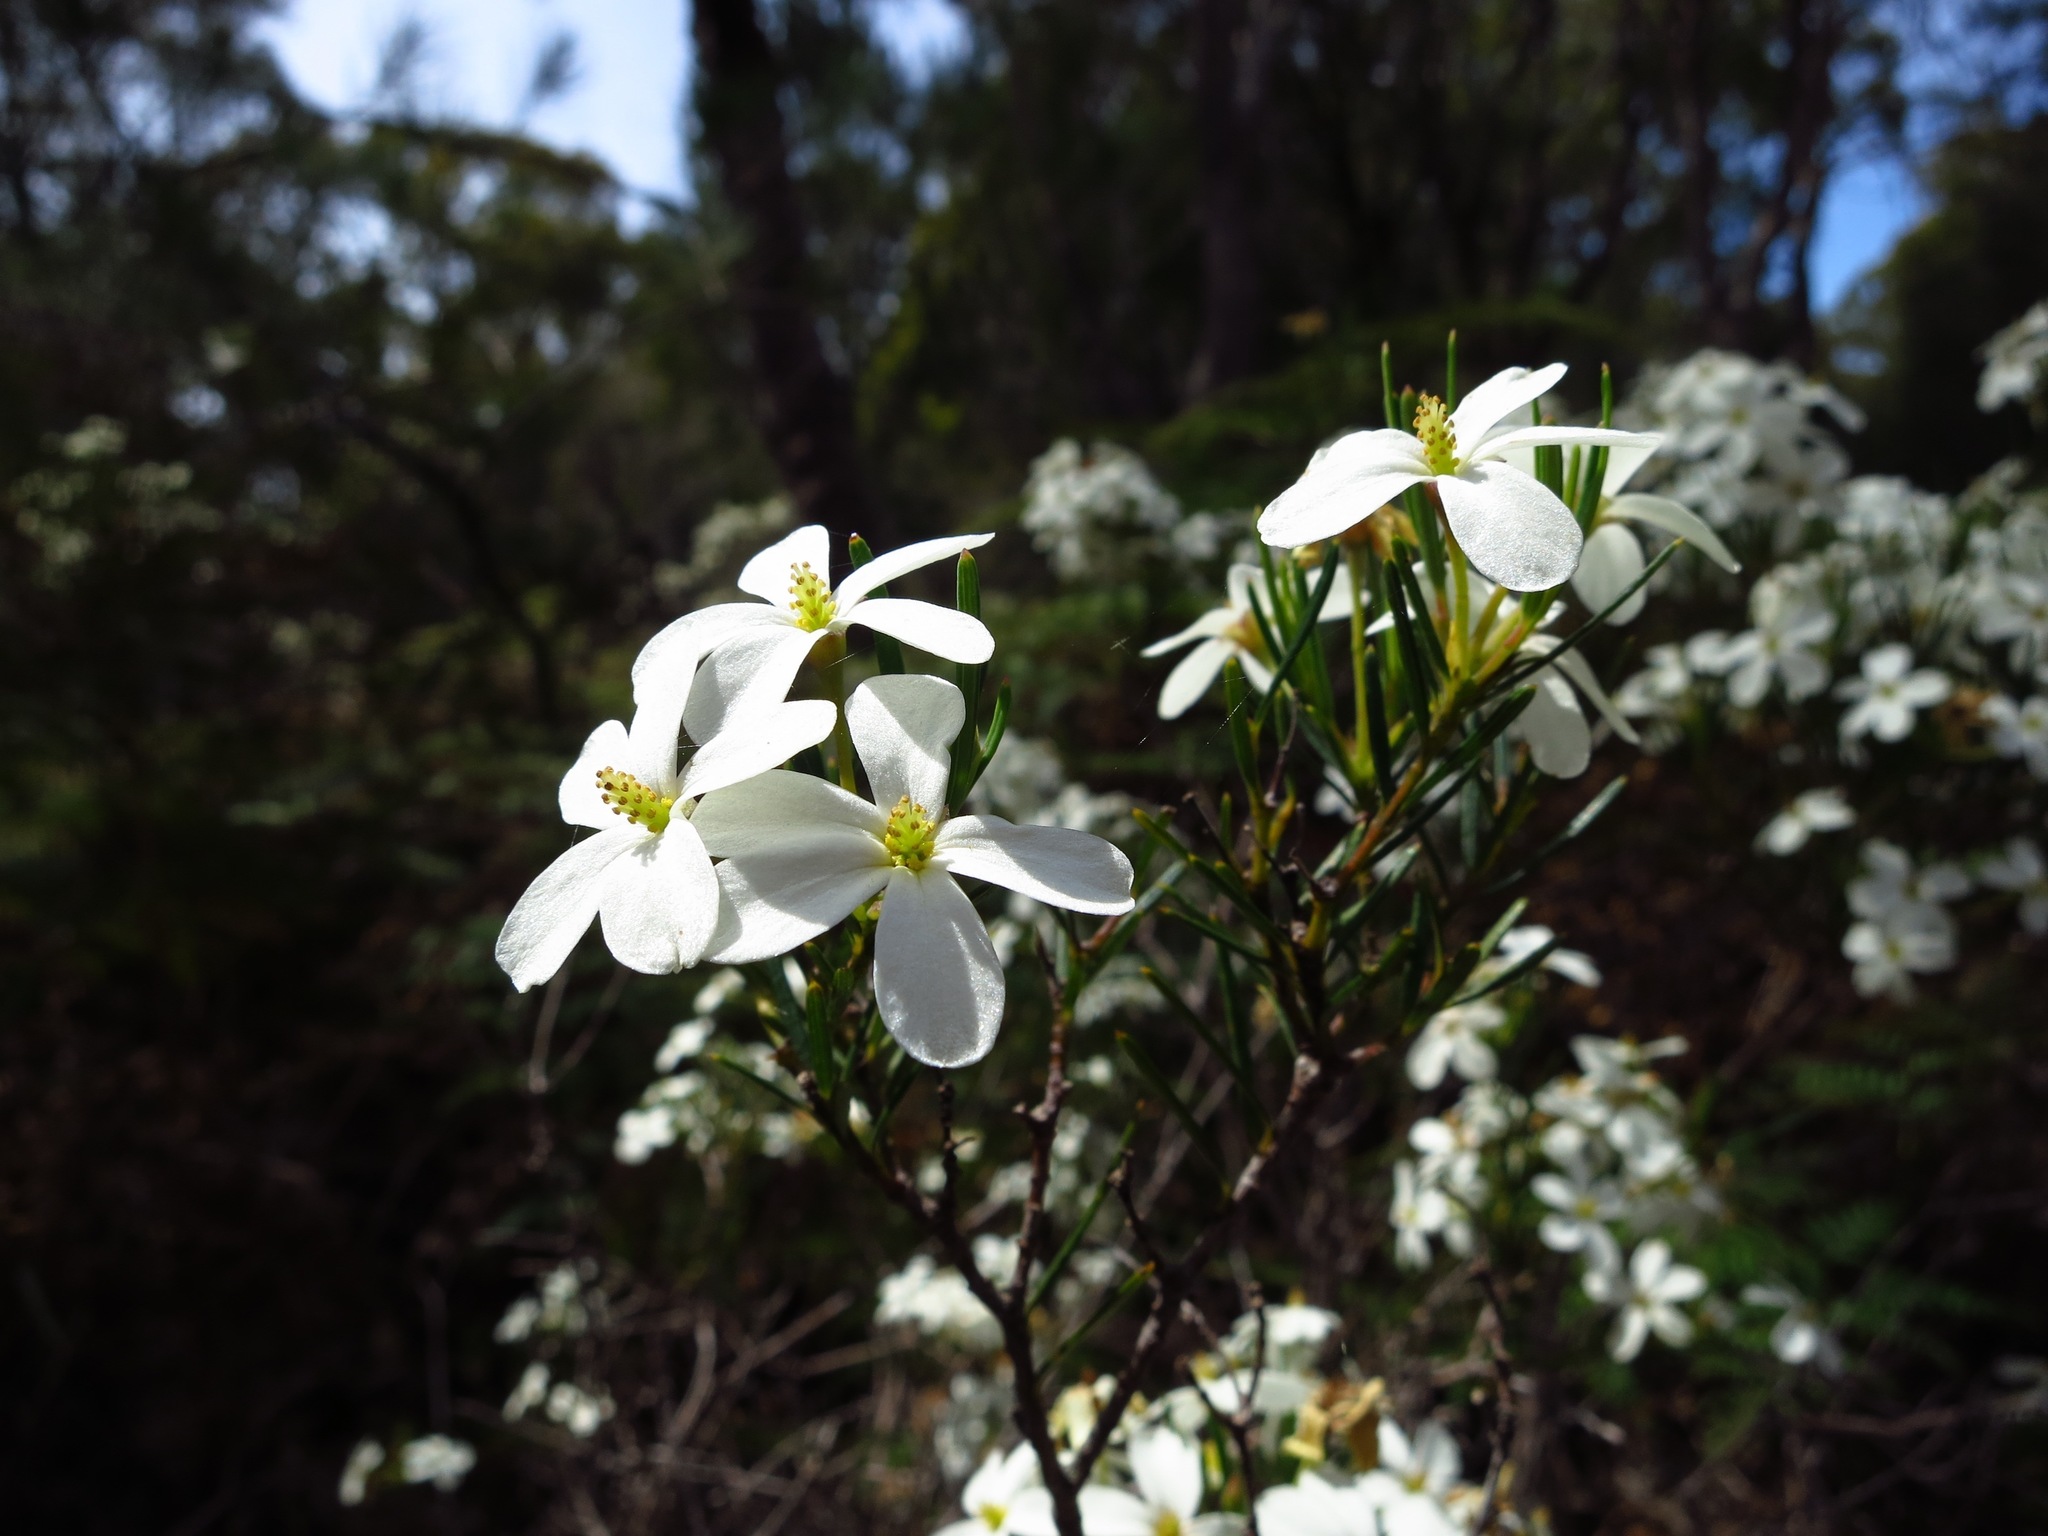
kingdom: Plantae
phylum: Tracheophyta
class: Magnoliopsida
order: Malpighiales
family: Euphorbiaceae
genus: Ricinocarpos
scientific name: Ricinocarpos pinifolius
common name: Weddingbush
